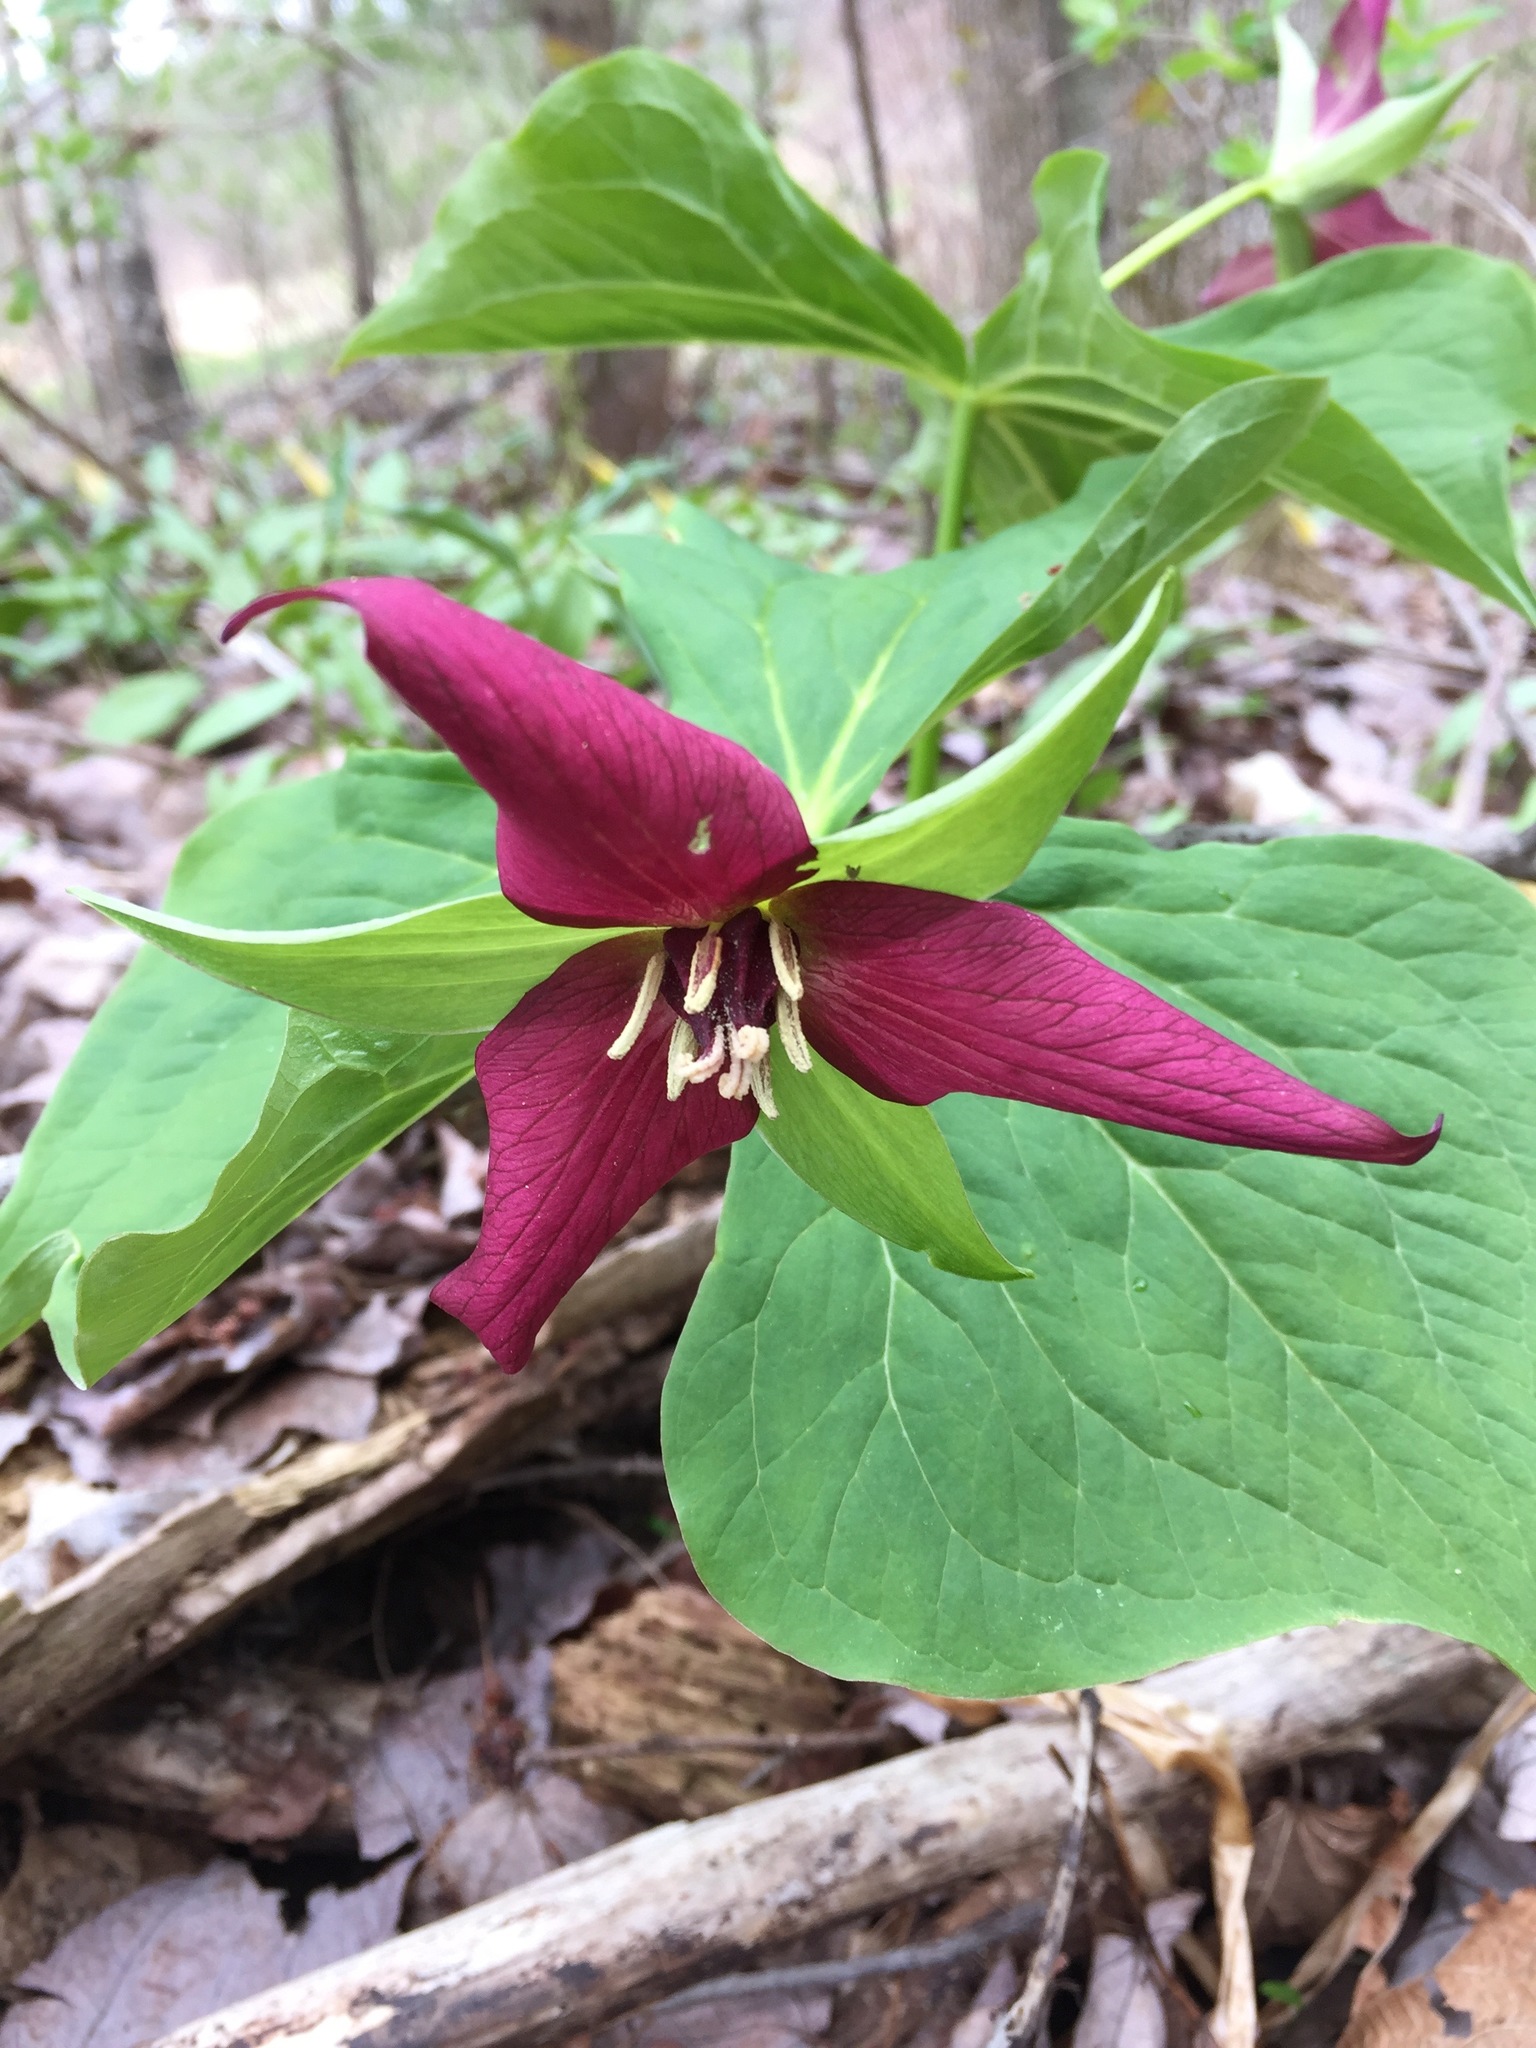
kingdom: Plantae
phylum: Tracheophyta
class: Liliopsida
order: Liliales
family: Melanthiaceae
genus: Trillium
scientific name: Trillium erectum
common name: Purple trillium
